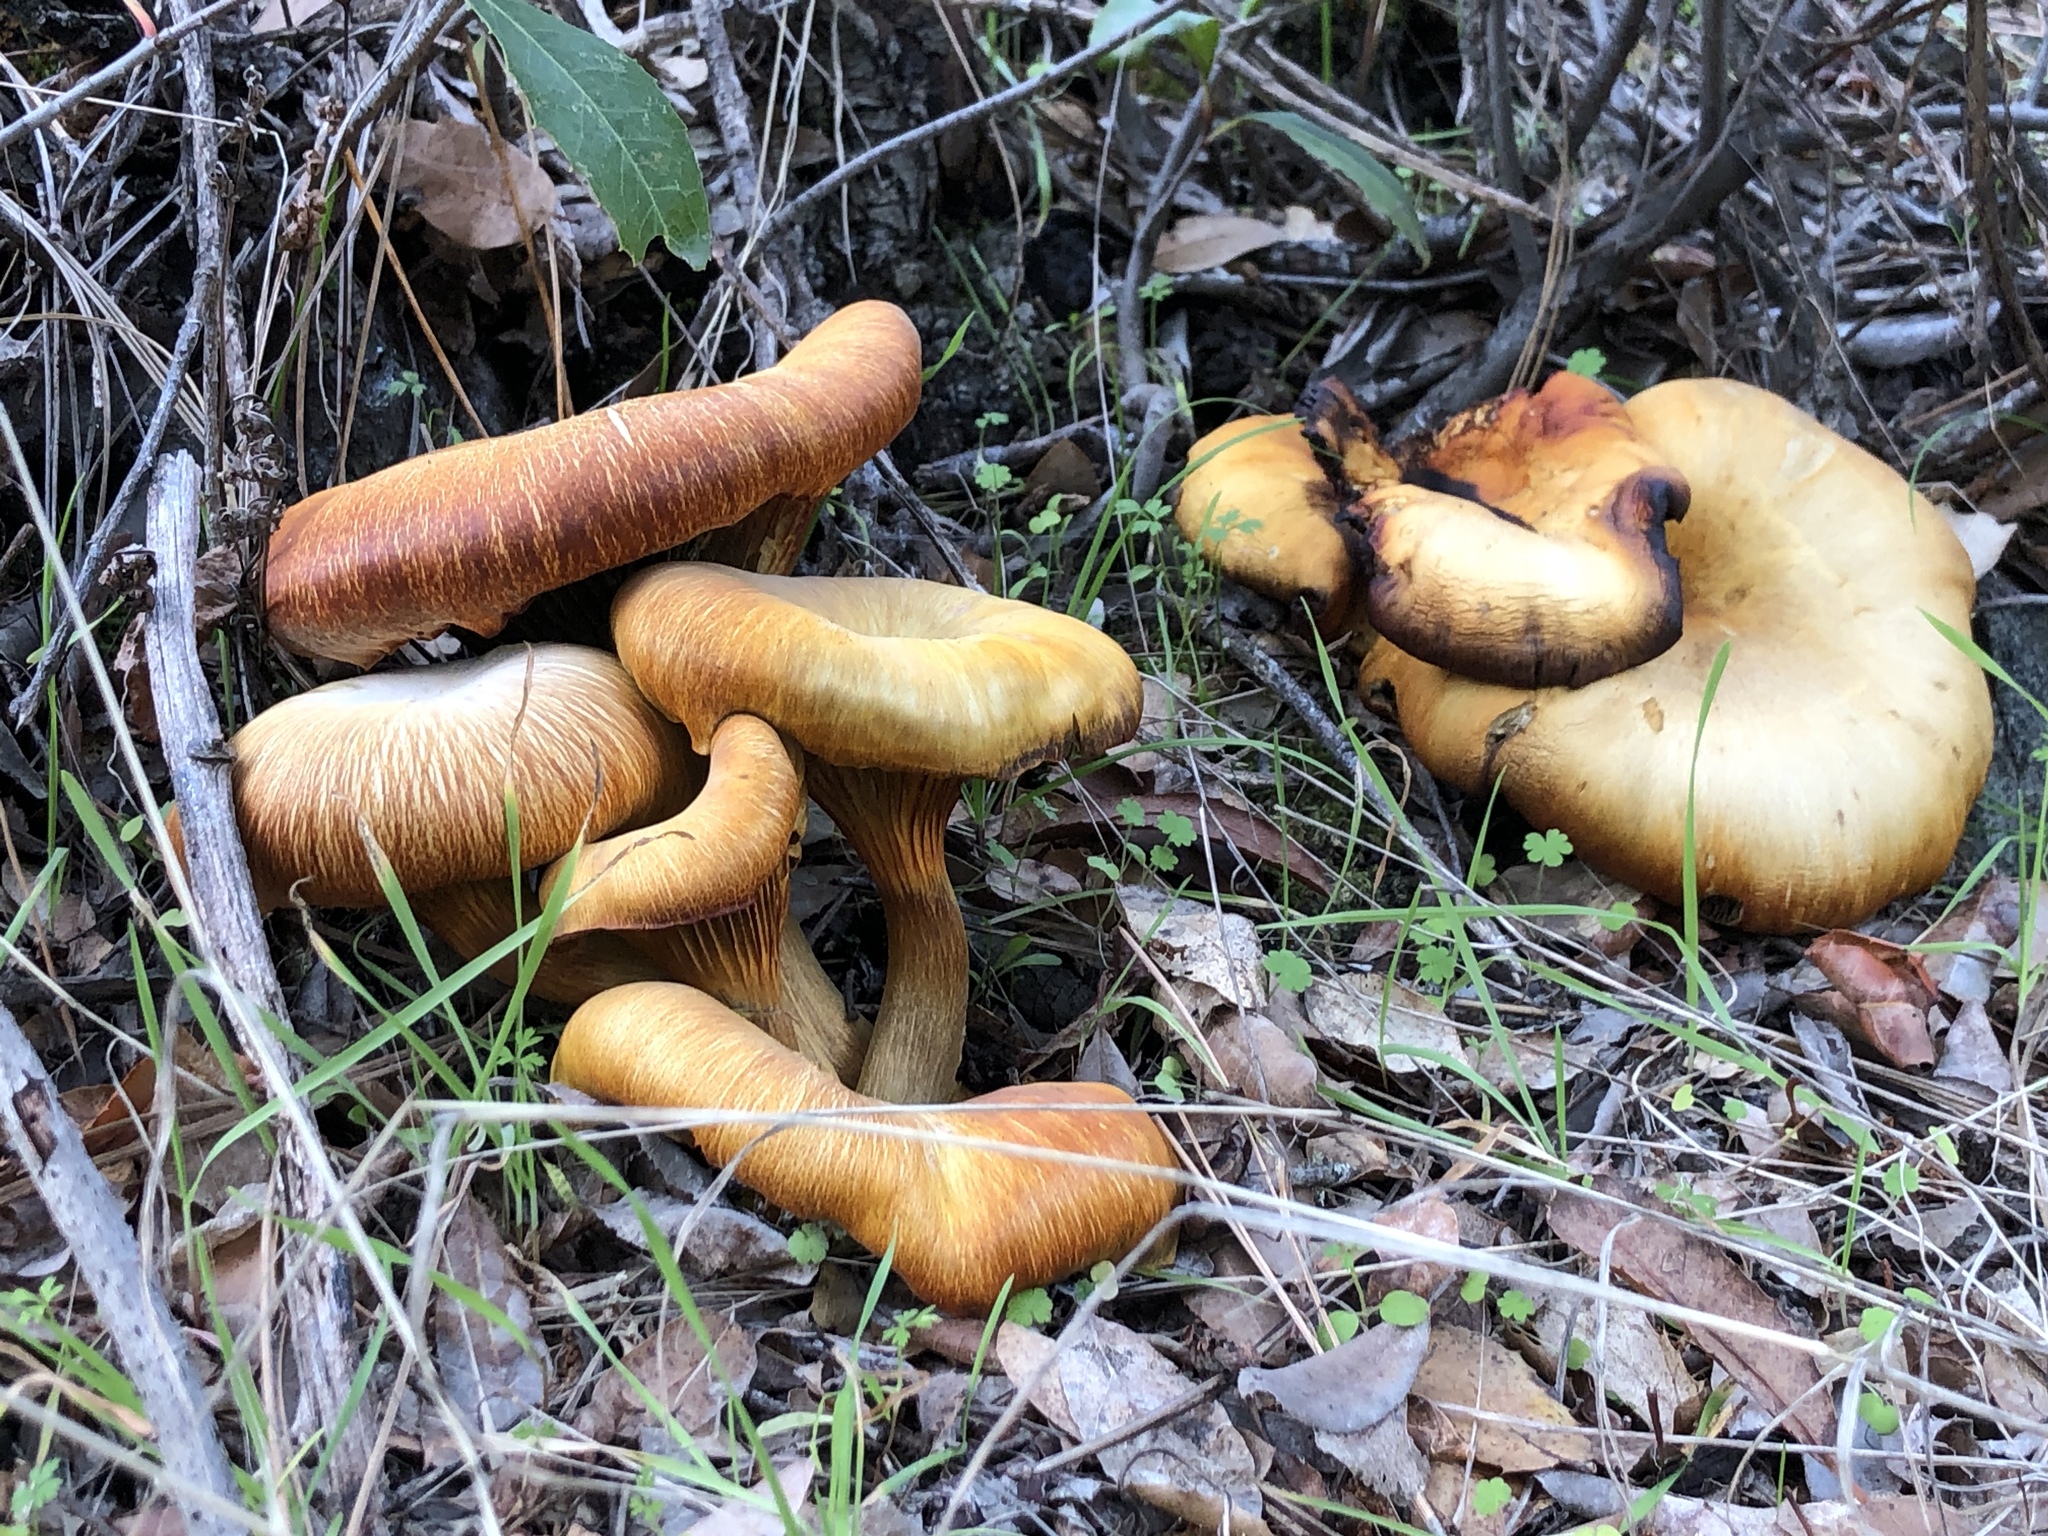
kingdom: Fungi
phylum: Basidiomycota
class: Agaricomycetes
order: Agaricales
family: Omphalotaceae
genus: Omphalotus
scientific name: Omphalotus olivascens
